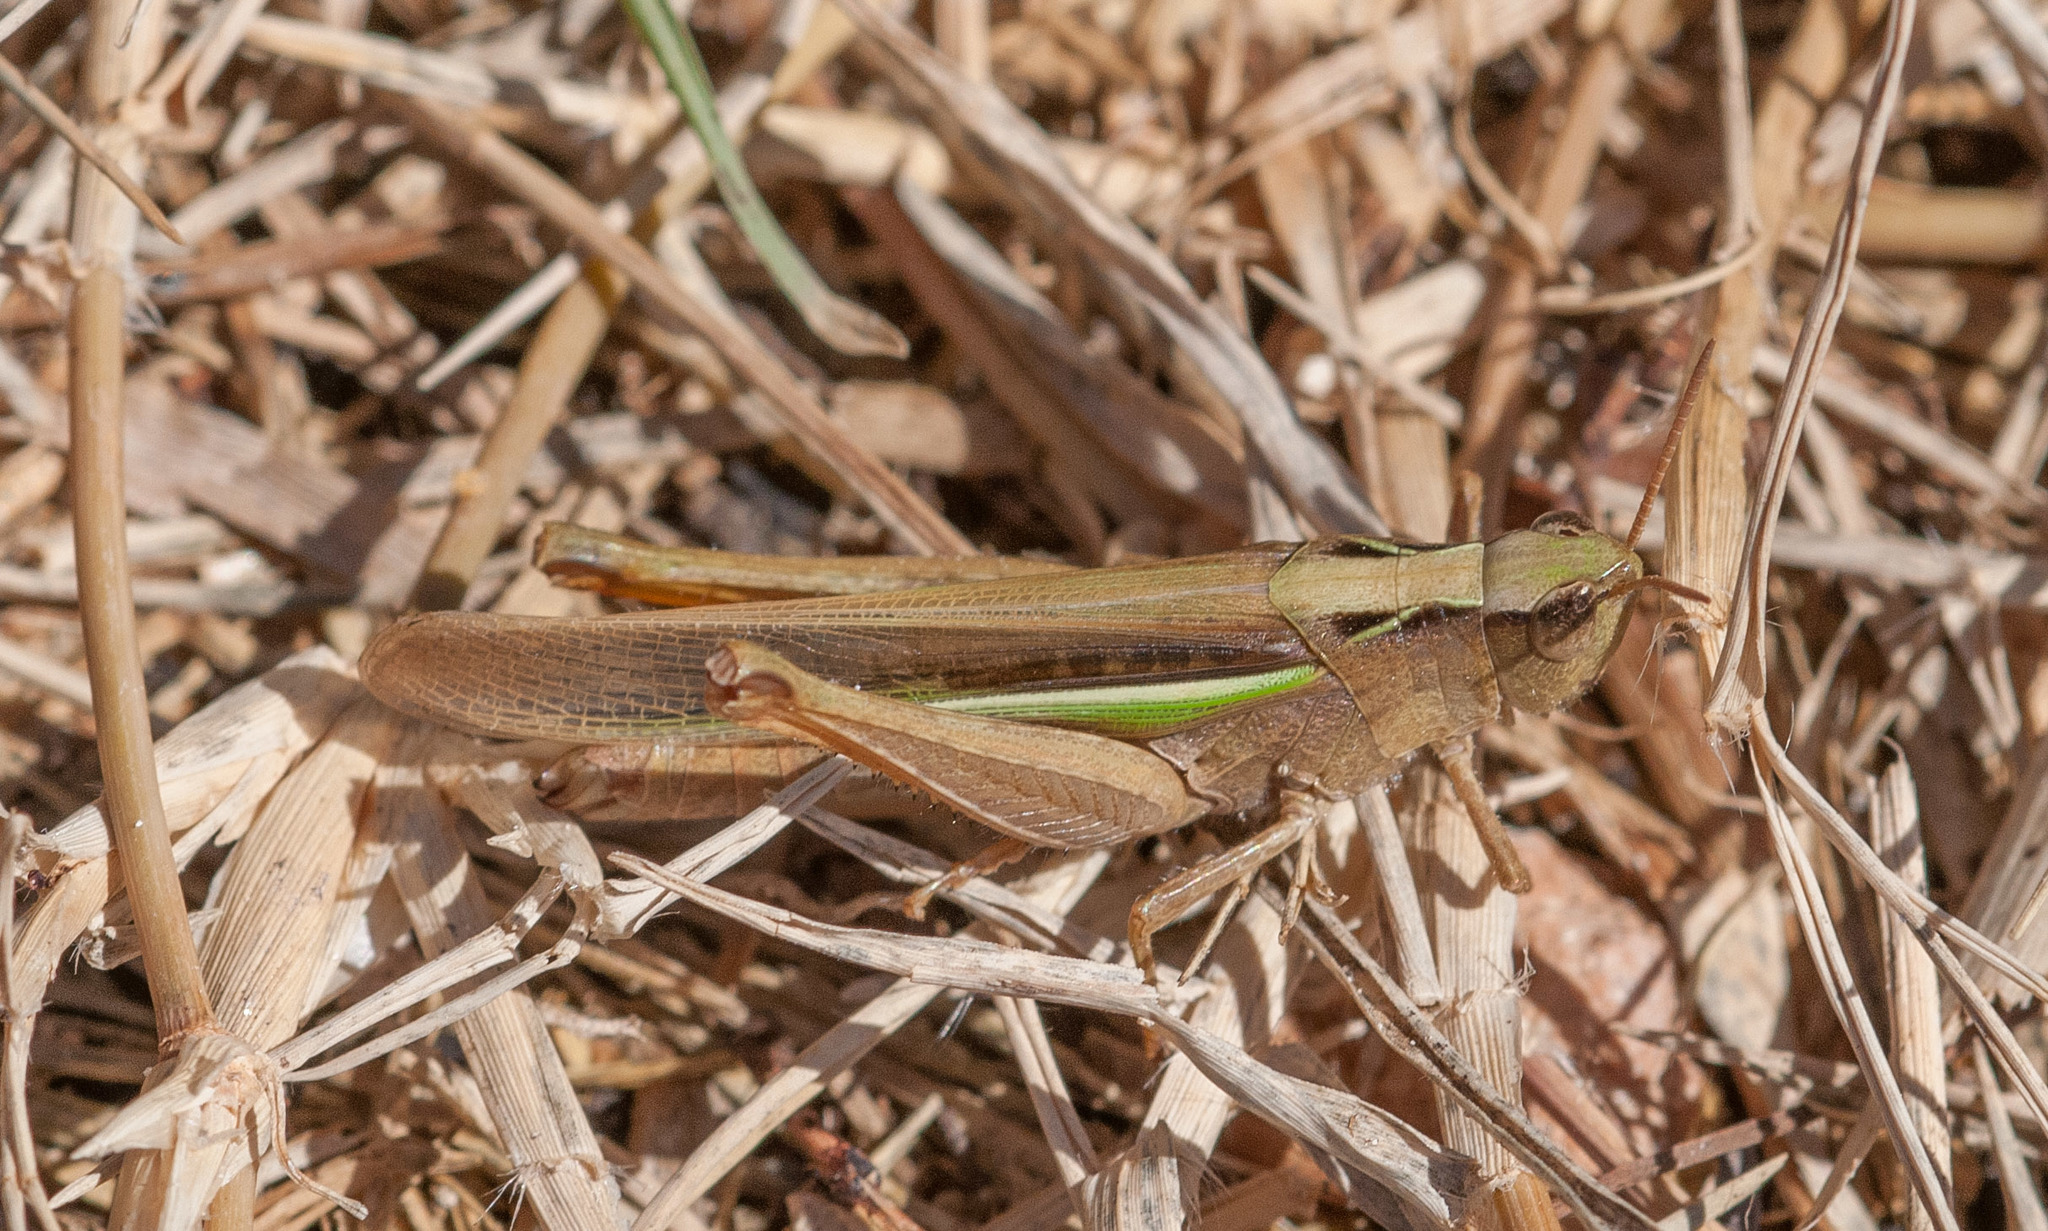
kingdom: Animalia
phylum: Arthropoda
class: Insecta
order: Orthoptera
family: Acrididae
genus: Schizobothrus
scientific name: Schizobothrus flavovittatus
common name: Disappearing grasshopper
